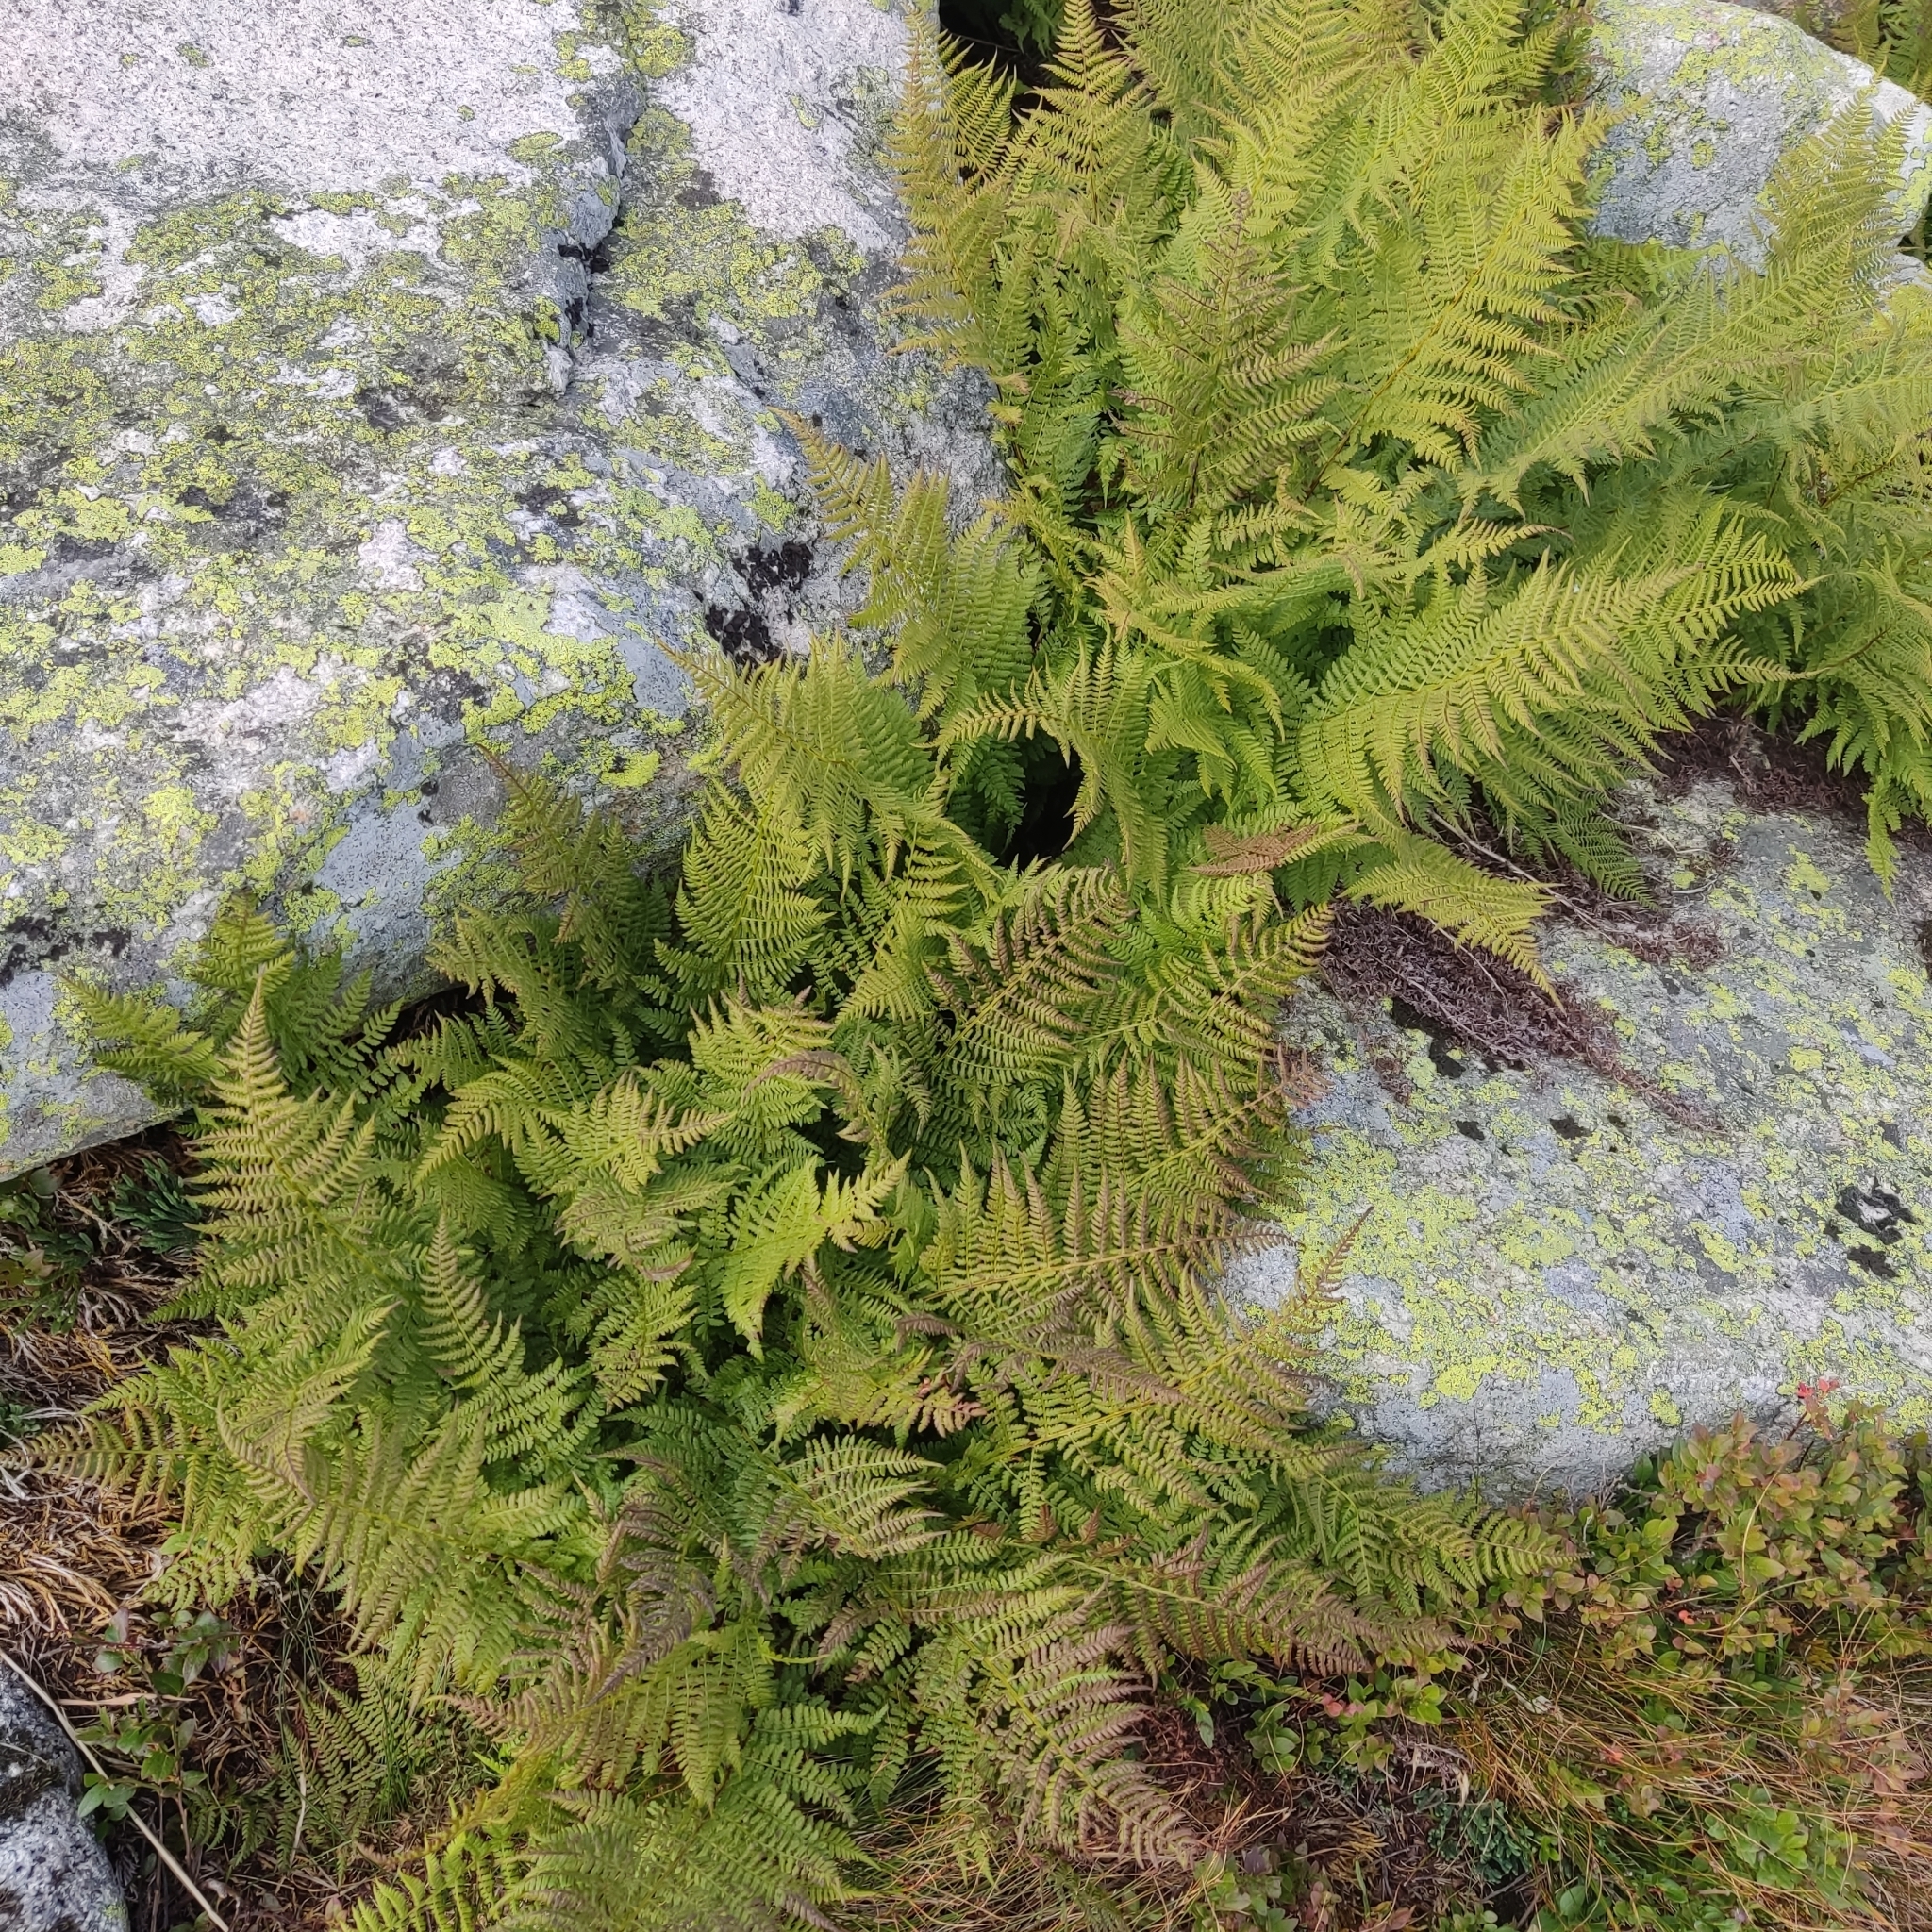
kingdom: Plantae
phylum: Tracheophyta
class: Polypodiopsida
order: Polypodiales
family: Athyriaceae
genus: Pseudathyrium
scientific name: Pseudathyrium alpestre
